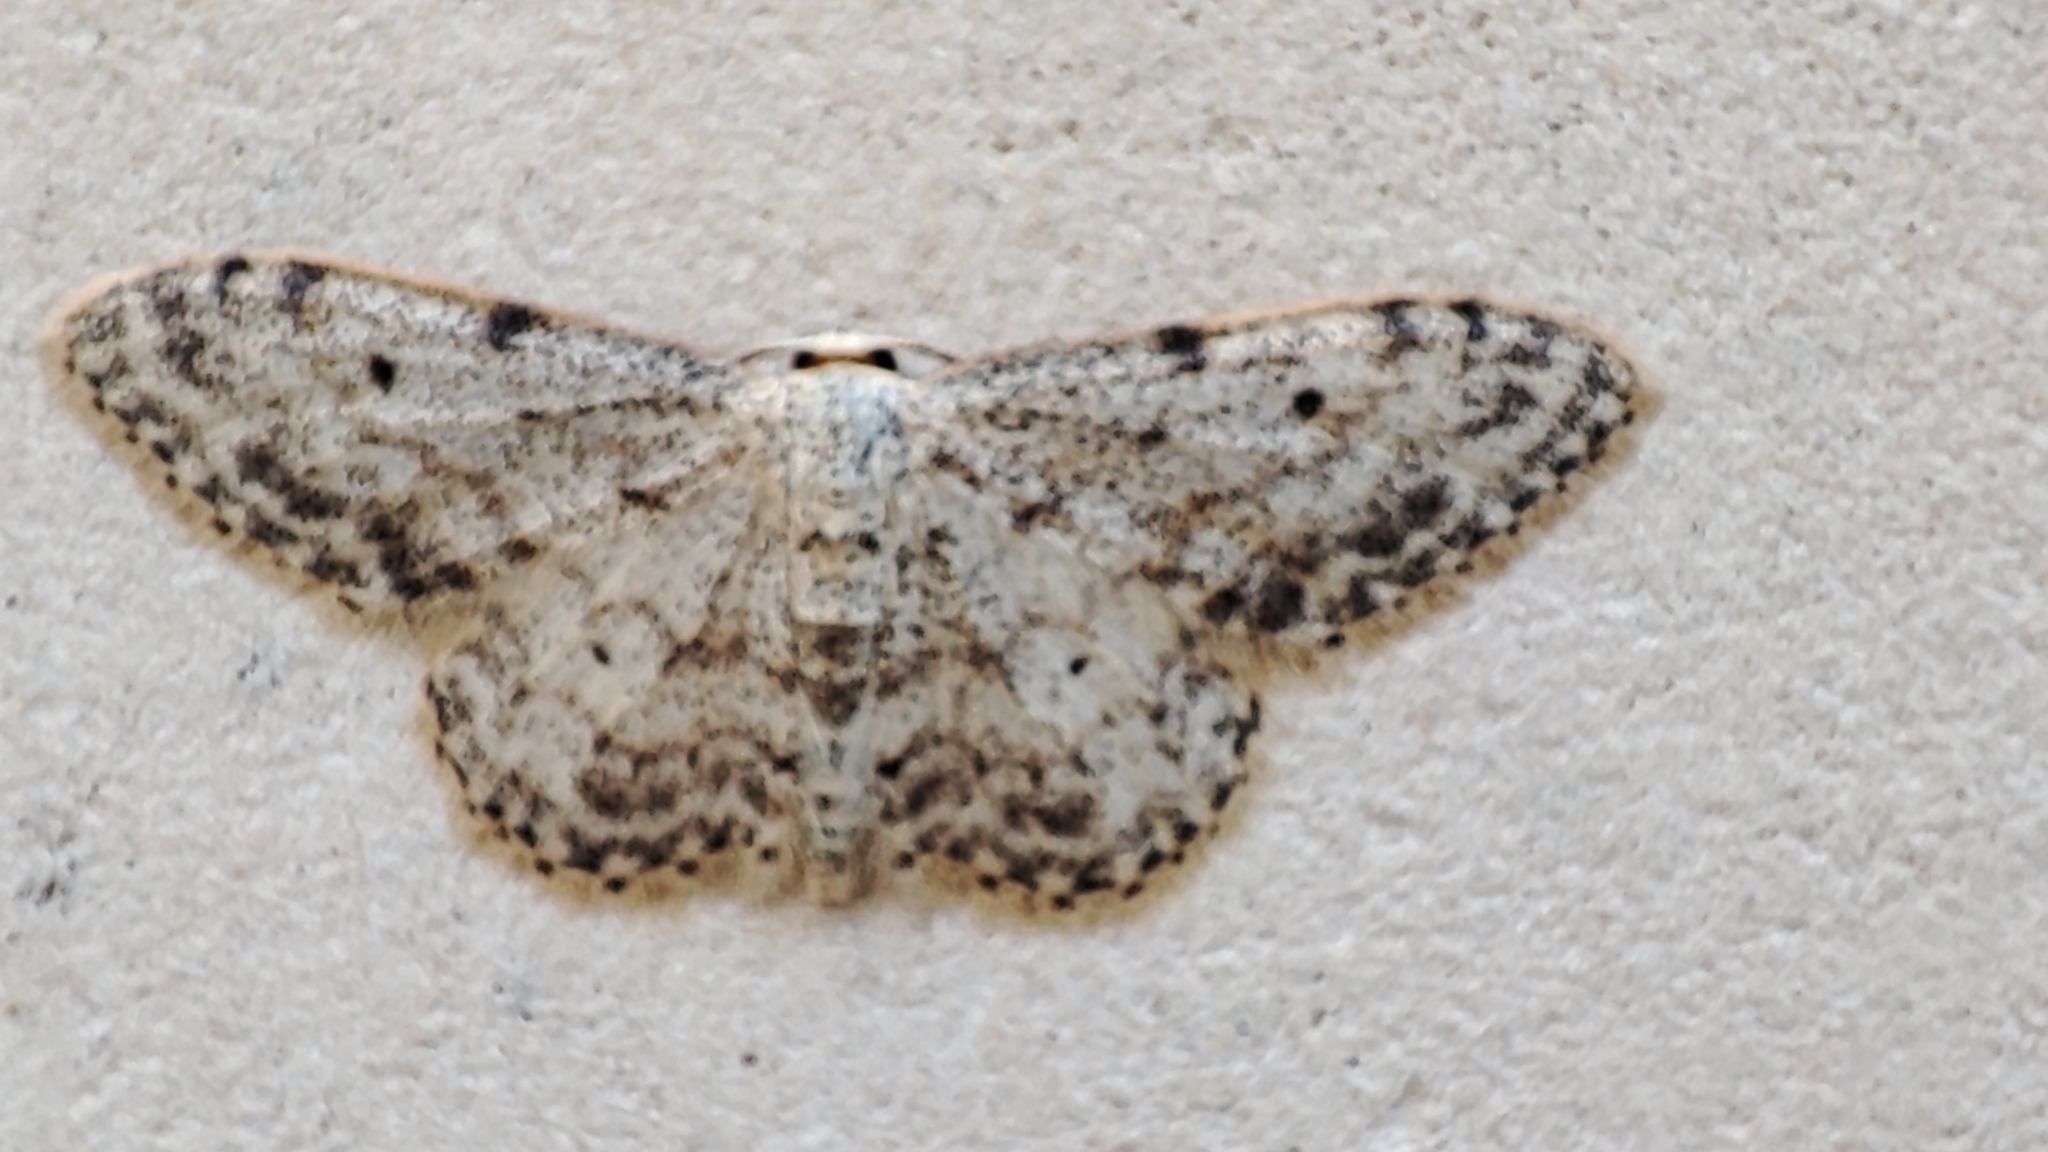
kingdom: Animalia
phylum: Arthropoda
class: Insecta
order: Lepidoptera
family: Geometridae
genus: Idaea
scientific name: Idaea camparia
